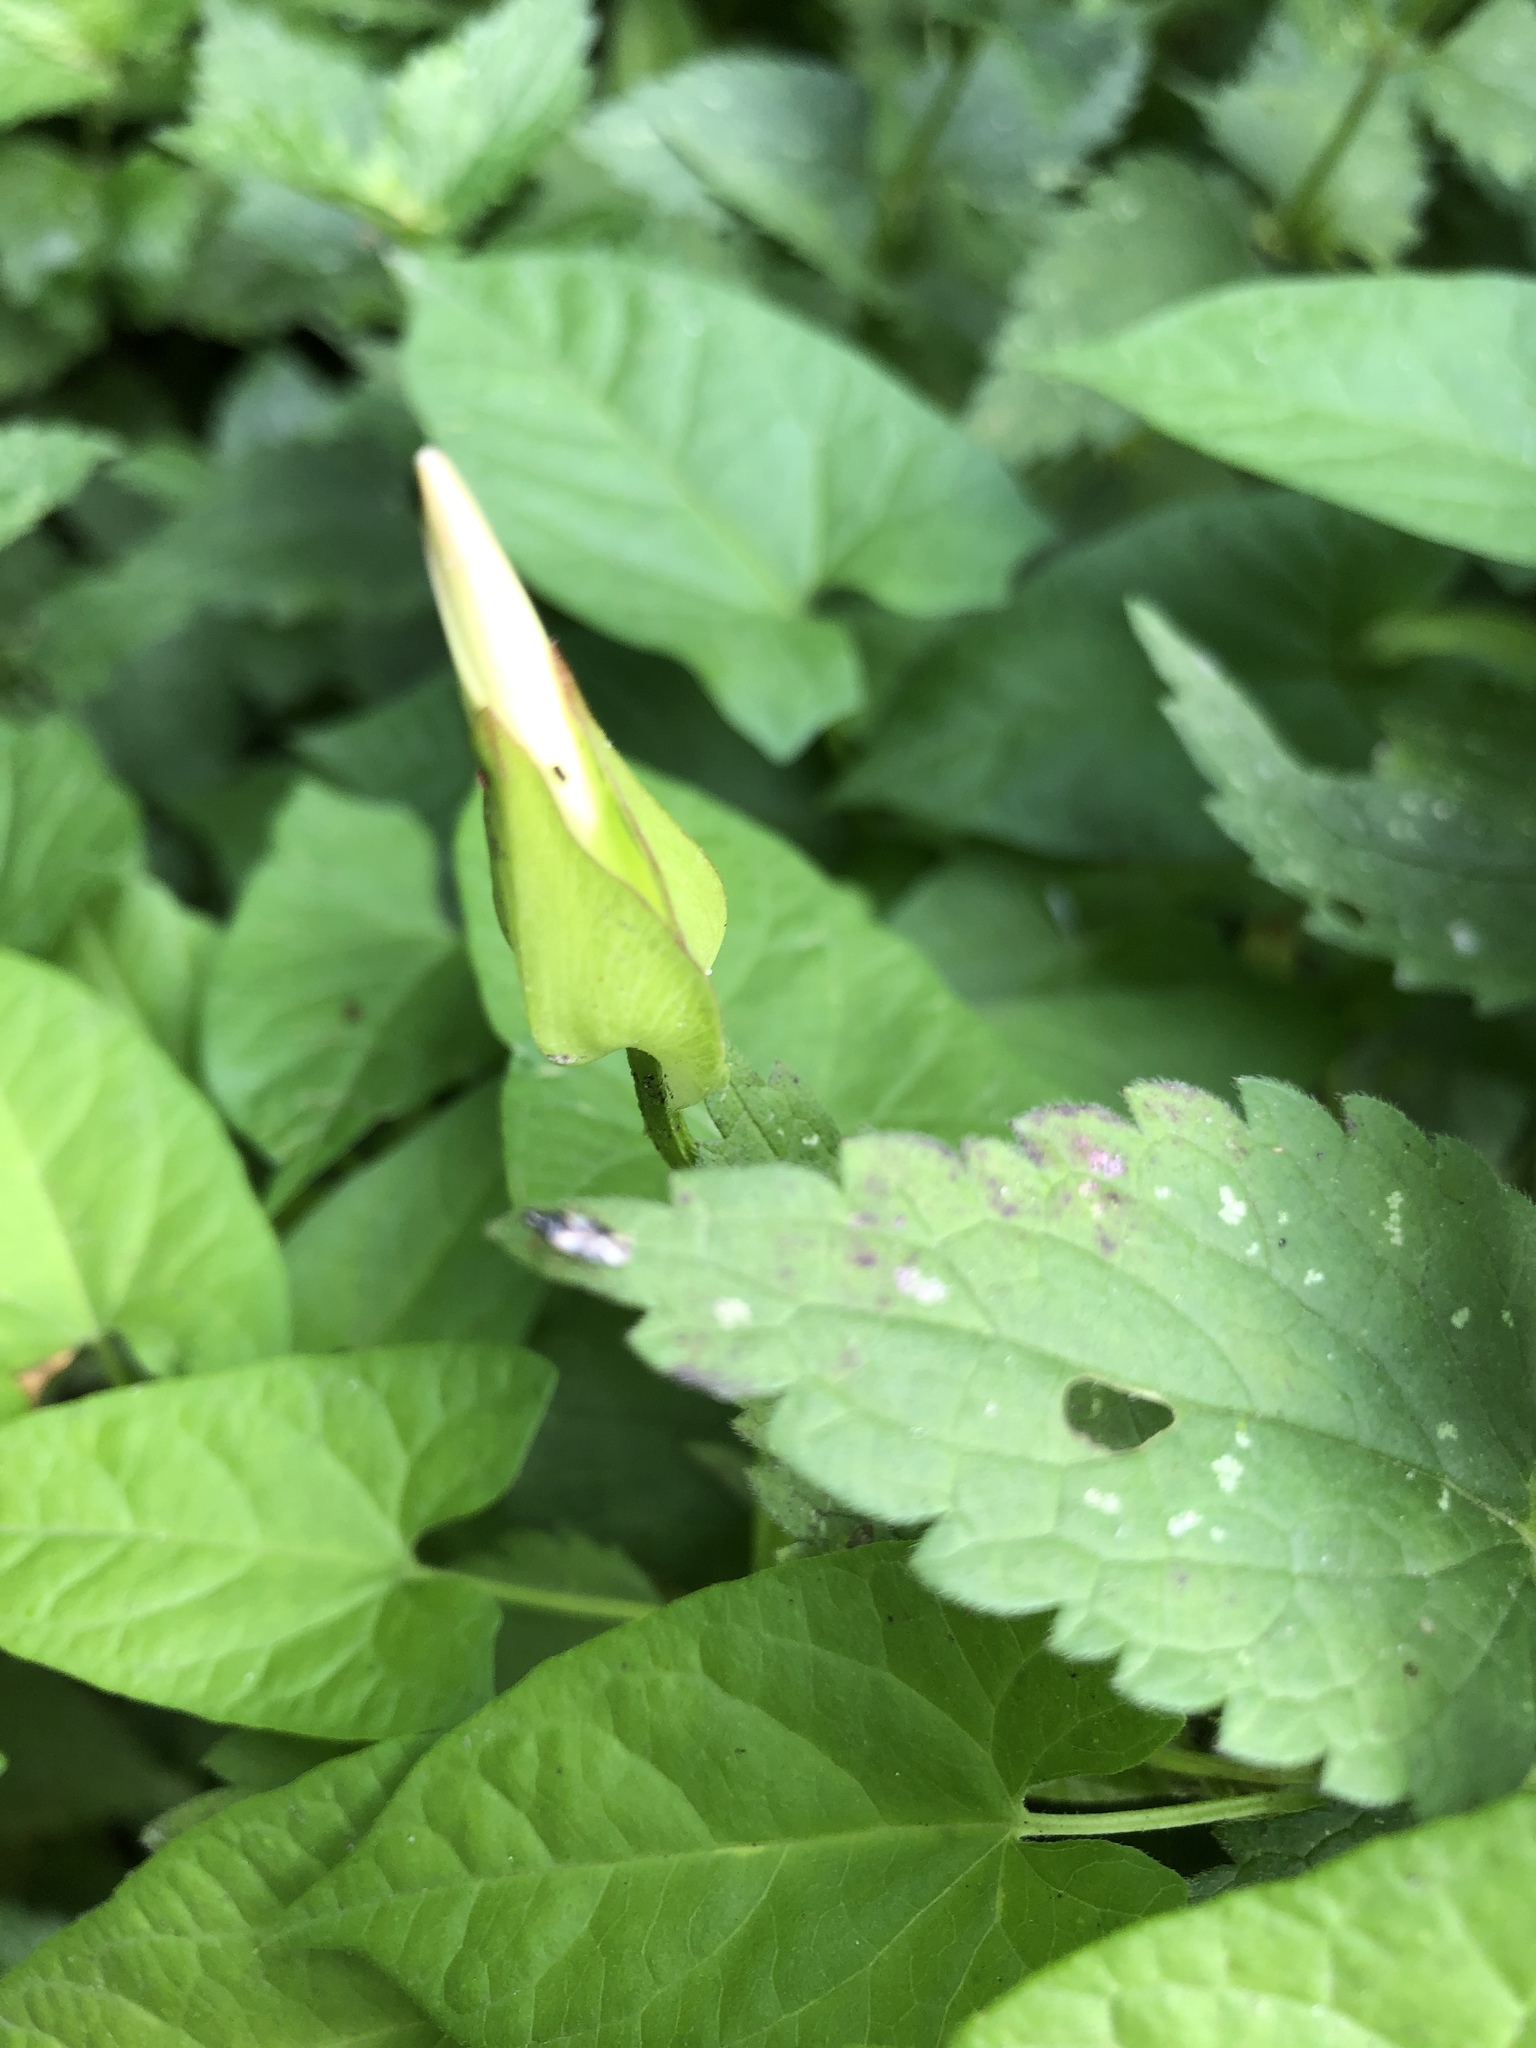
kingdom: Plantae
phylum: Tracheophyta
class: Magnoliopsida
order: Solanales
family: Convolvulaceae
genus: Calystegia
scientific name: Calystegia sepium
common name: Hedge bindweed
